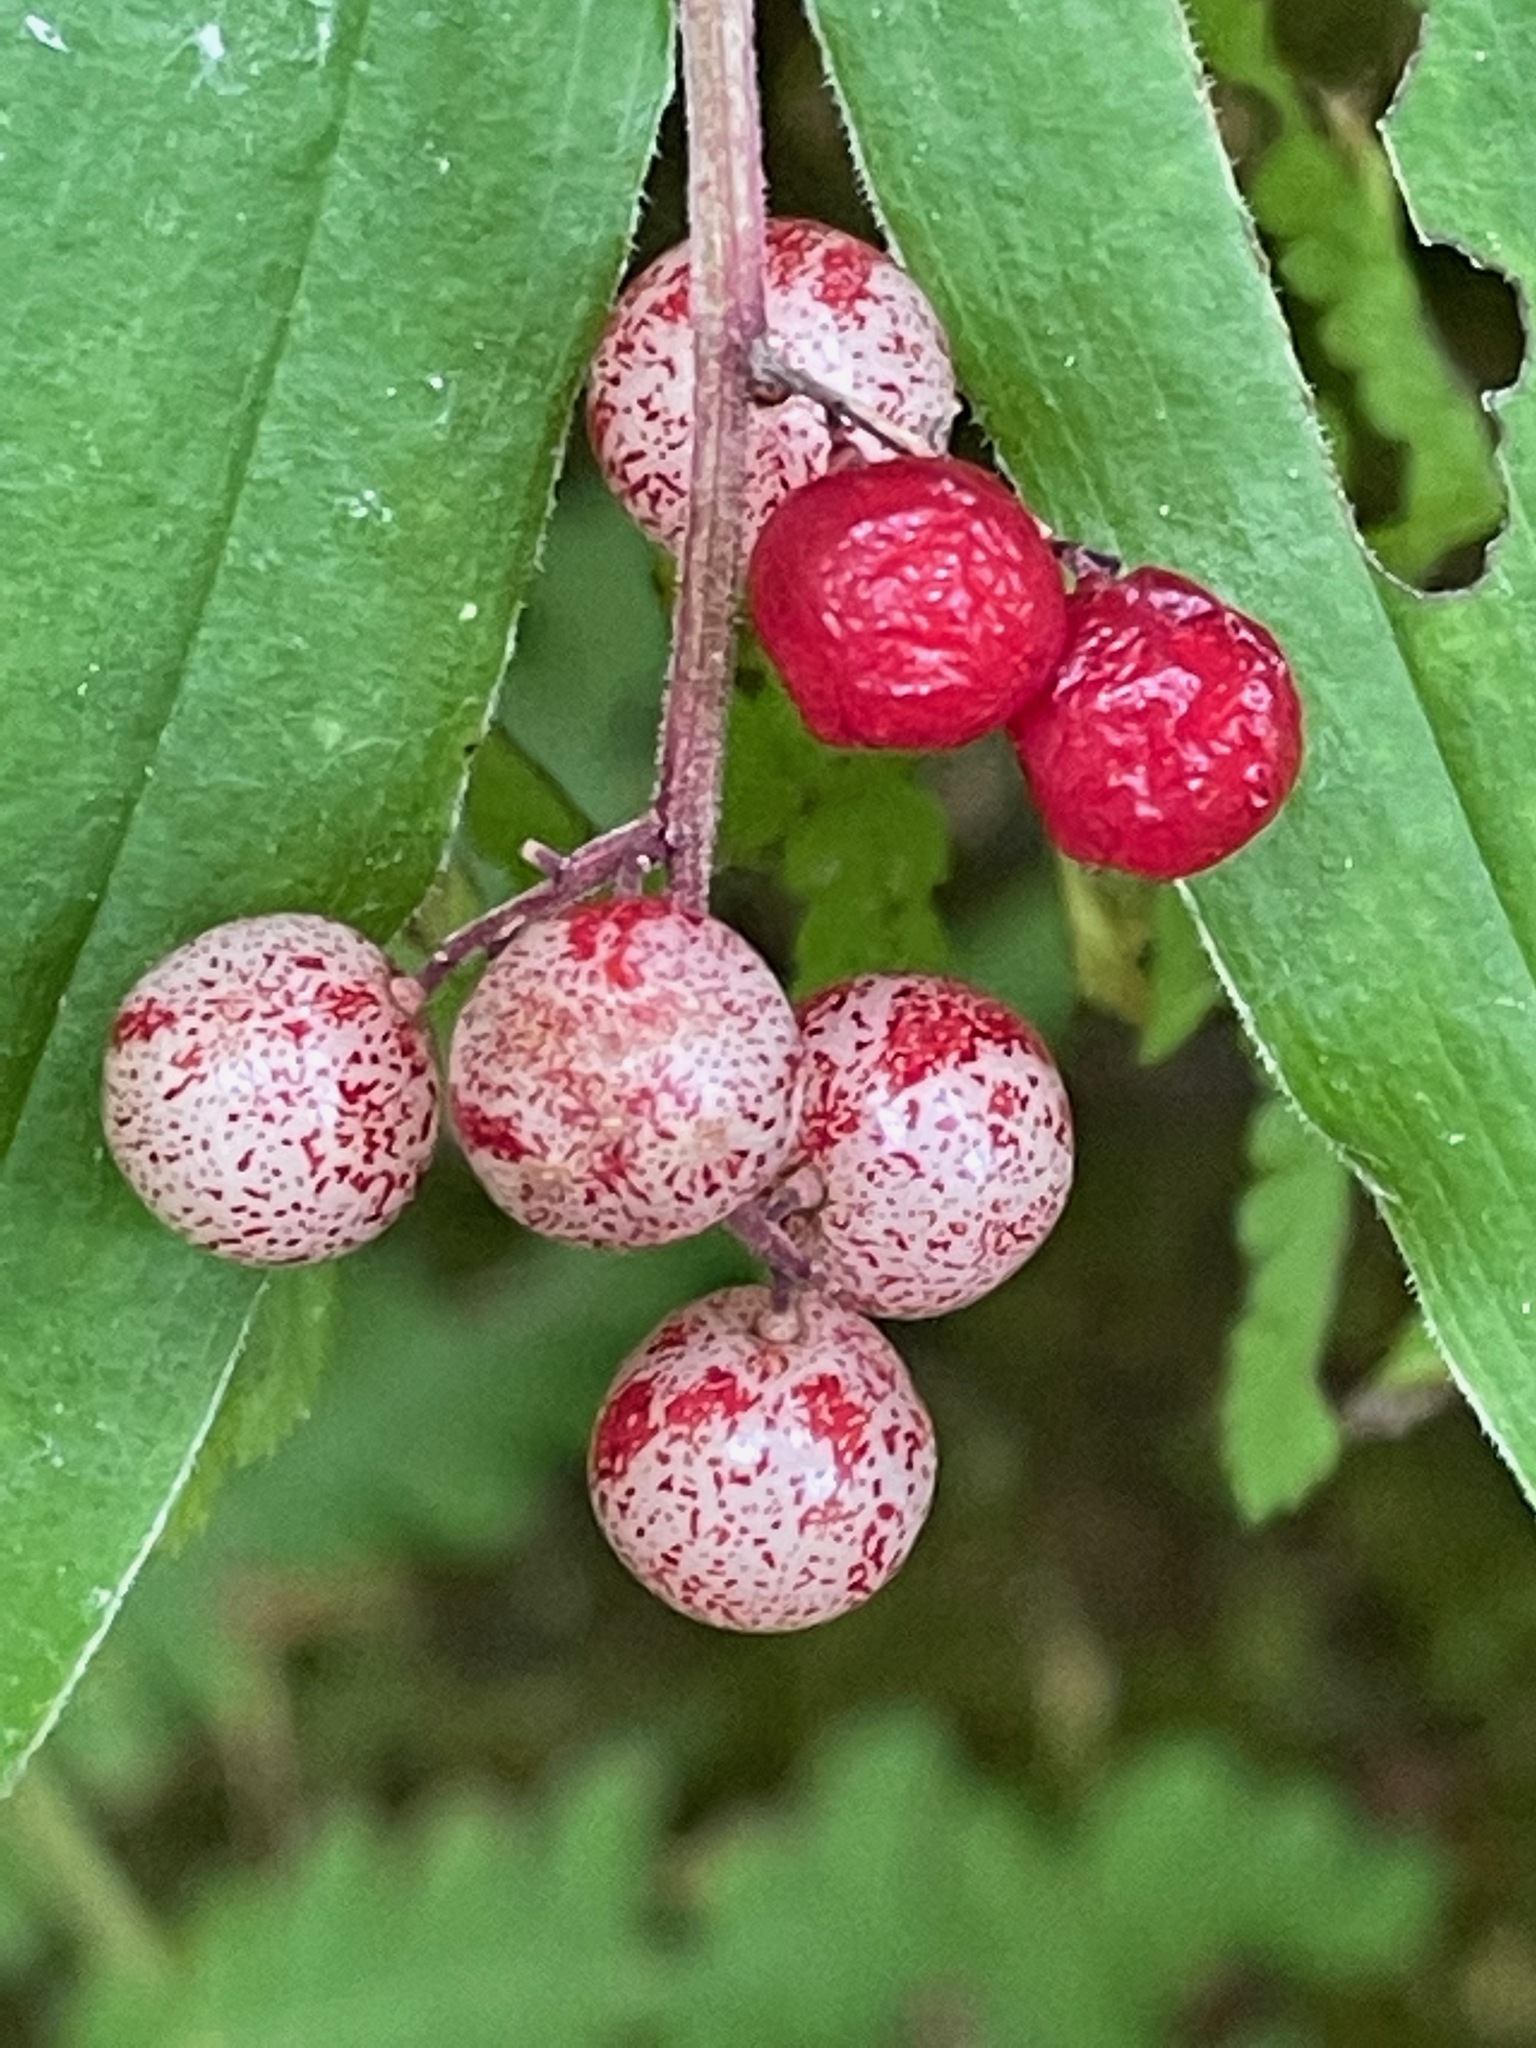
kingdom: Plantae
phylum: Tracheophyta
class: Liliopsida
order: Asparagales
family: Asparagaceae
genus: Maianthemum
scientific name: Maianthemum racemosum
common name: False spikenard
